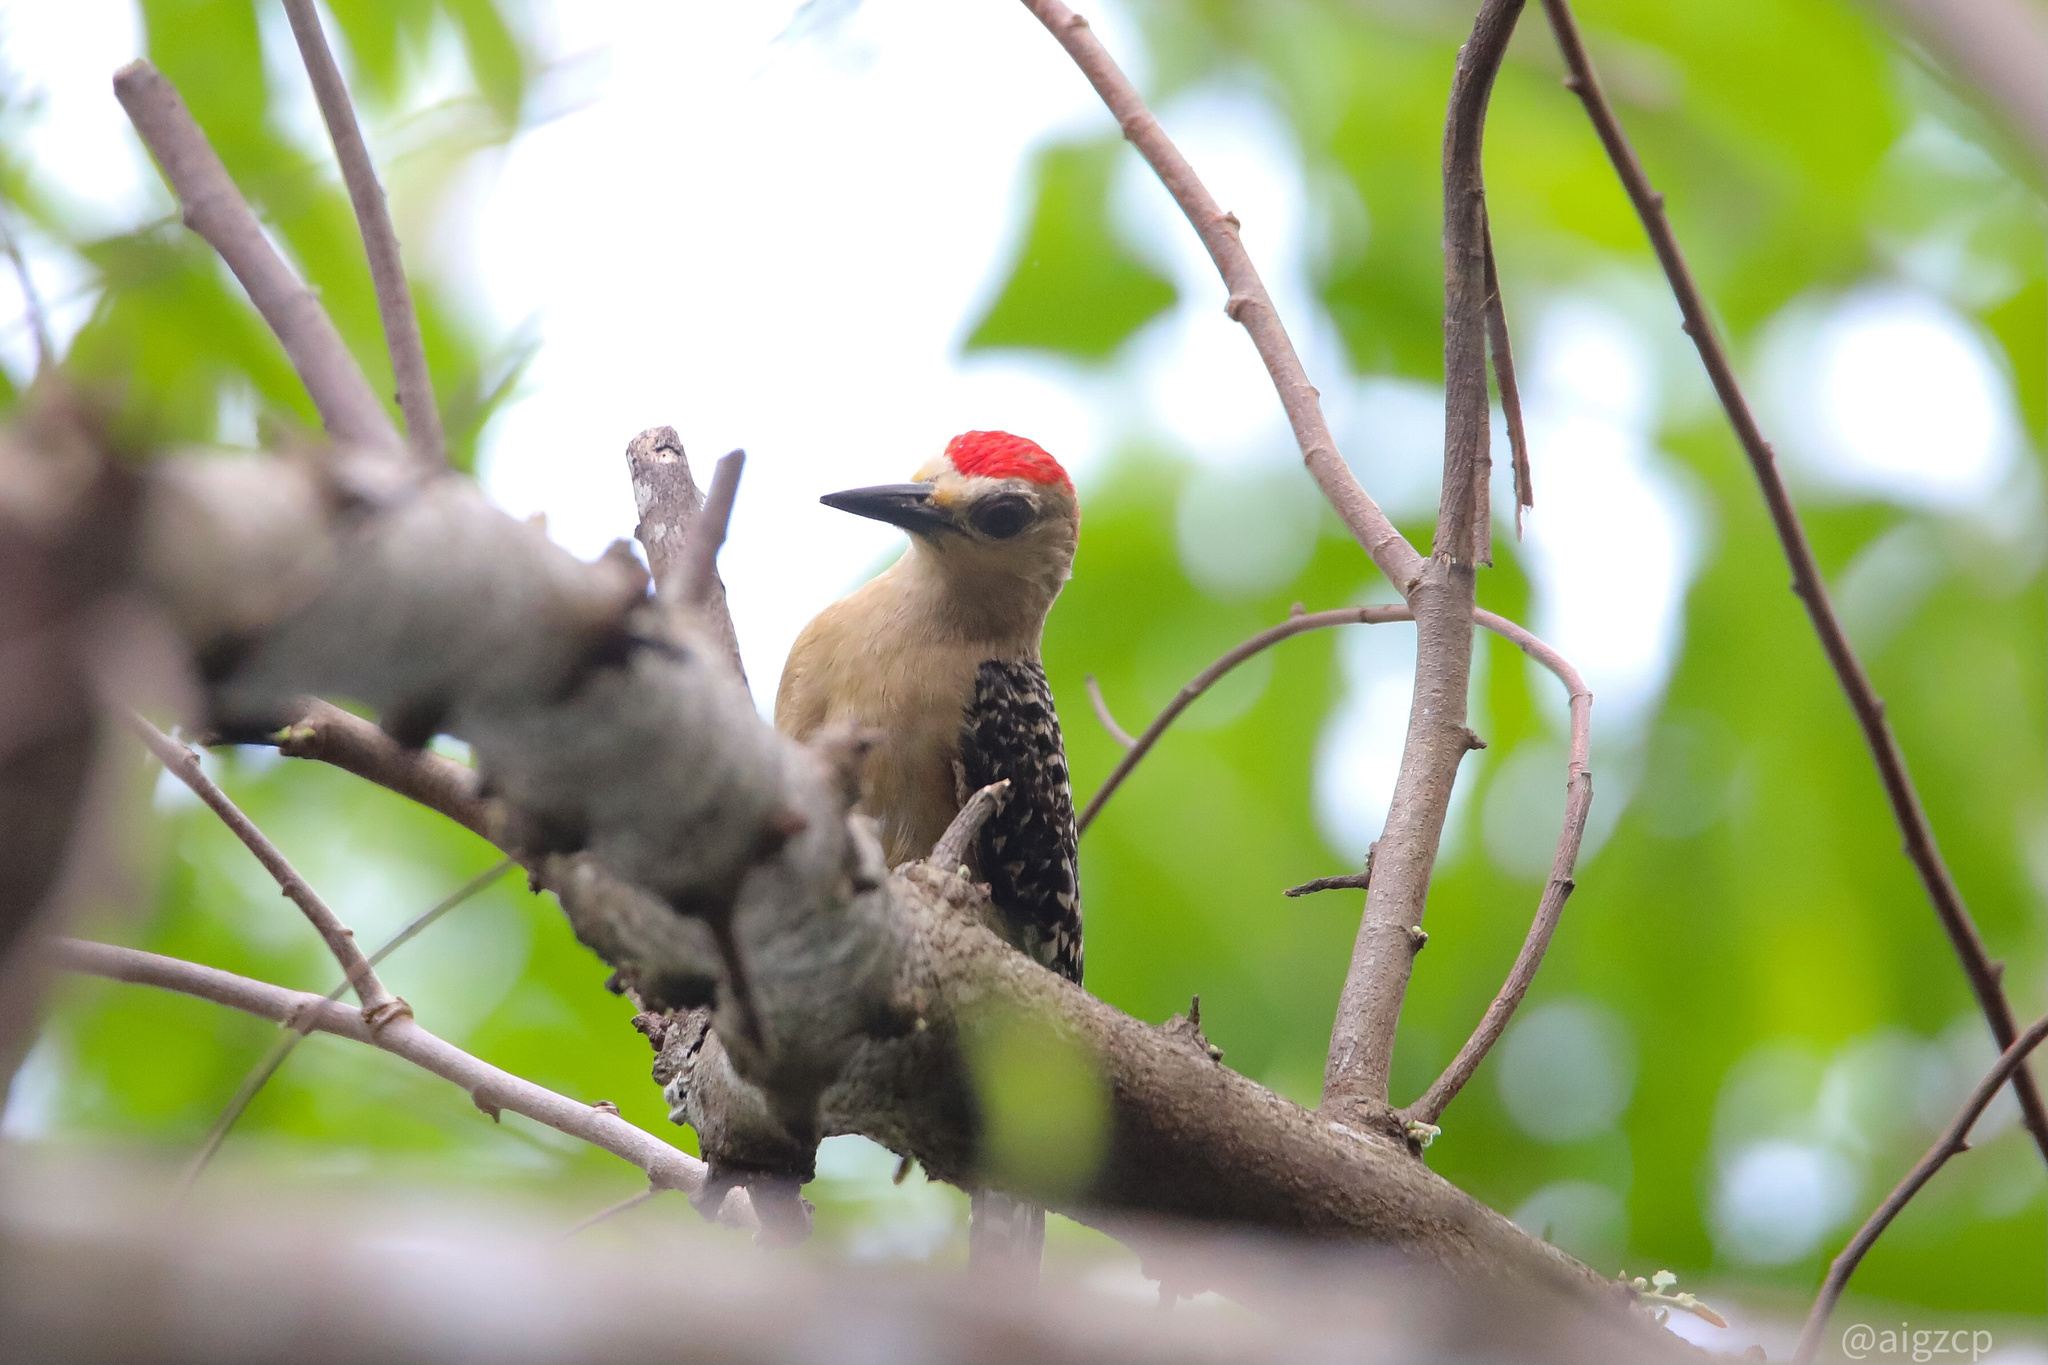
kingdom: Animalia
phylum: Chordata
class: Aves
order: Piciformes
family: Picidae
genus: Melanerpes
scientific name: Melanerpes rubricapillus
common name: Red-crowned woodpecker
